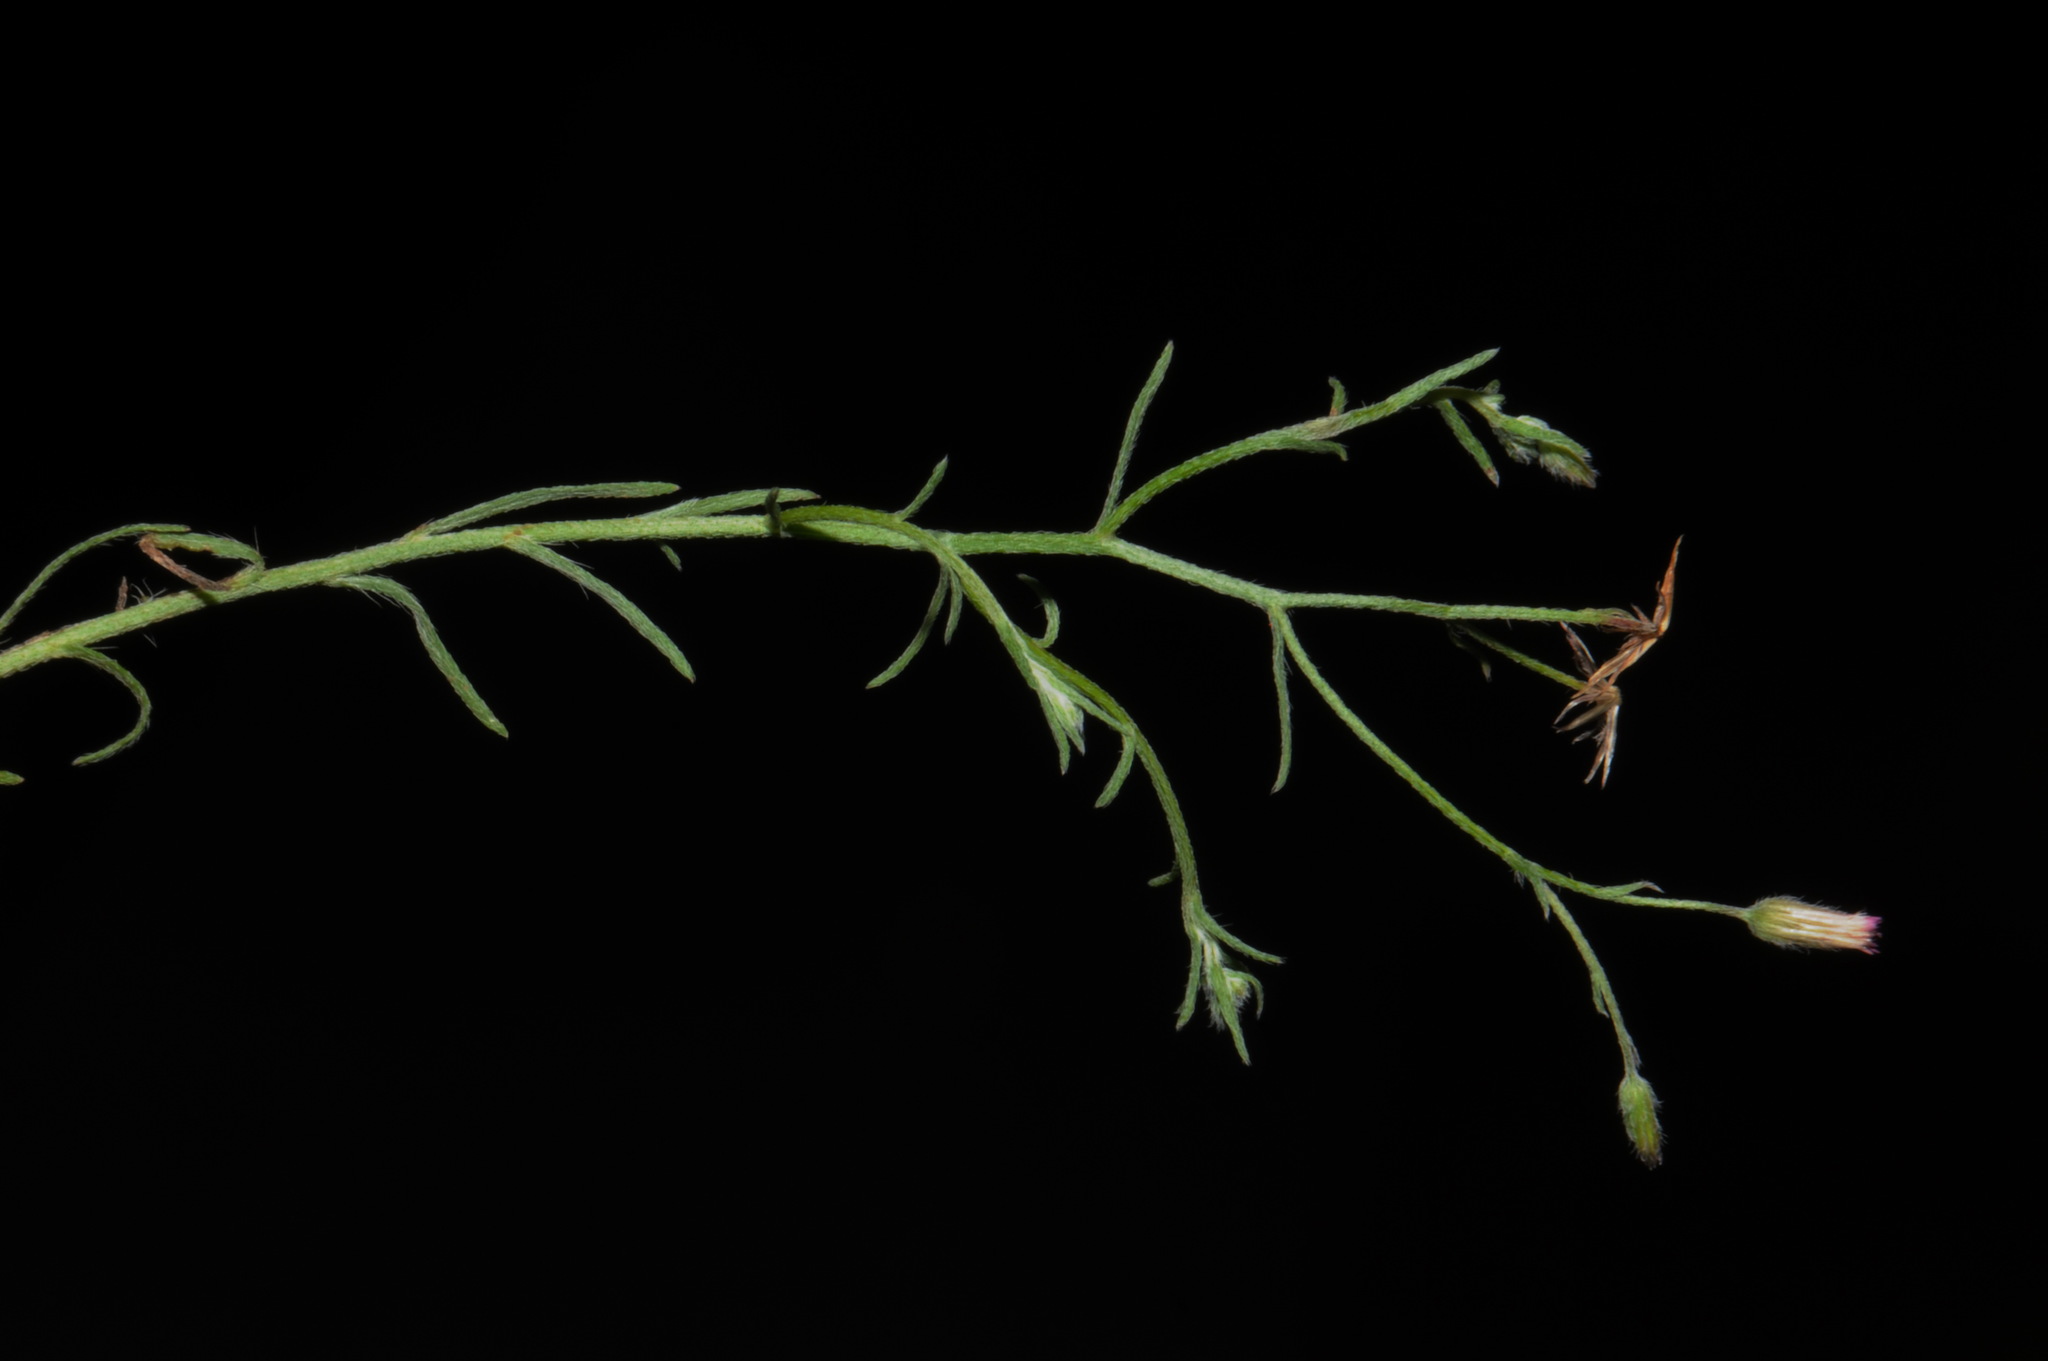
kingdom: Plantae
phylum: Tracheophyta
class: Magnoliopsida
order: Asterales
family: Asteraceae
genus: Erigeron
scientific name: Erigeron divaricatus
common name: Dwarf conyza
